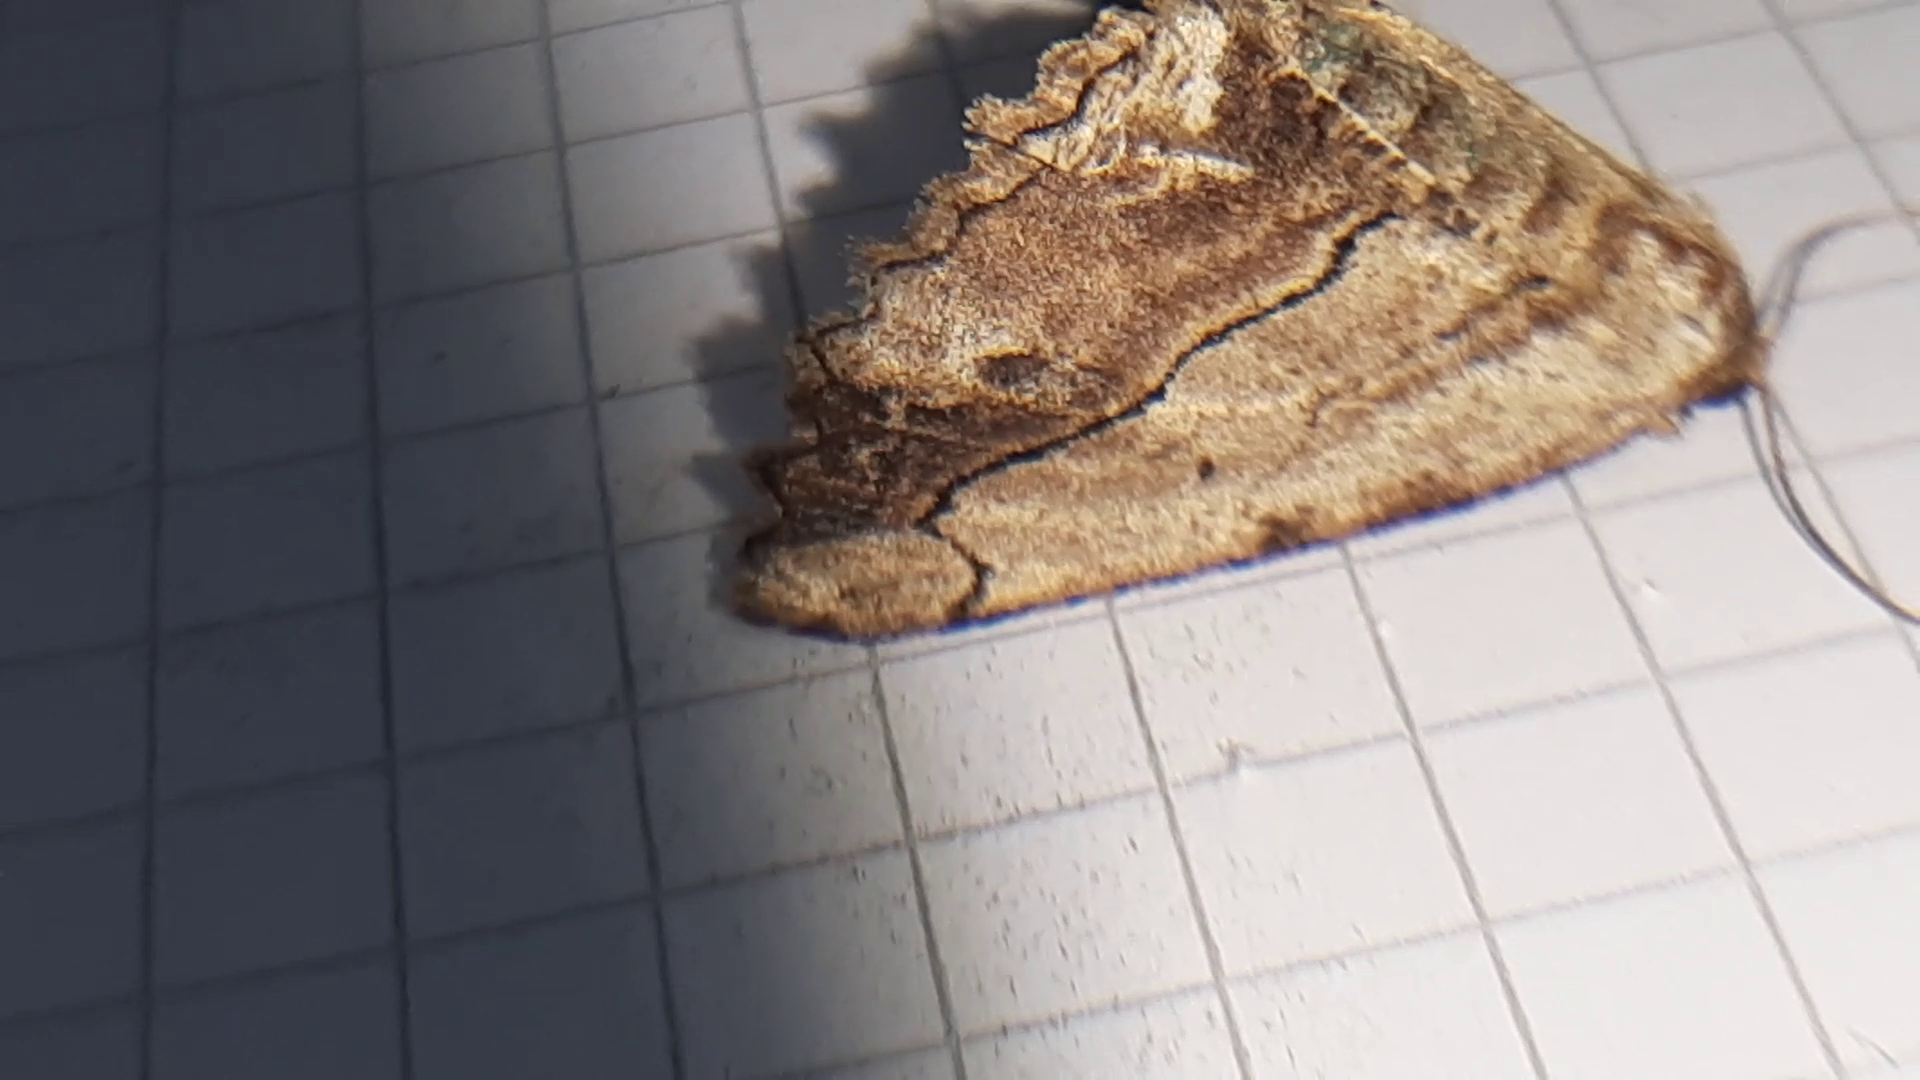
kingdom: Animalia
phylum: Arthropoda
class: Insecta
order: Lepidoptera
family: Geometridae
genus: Menophra
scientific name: Menophra abruptaria
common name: Waved umber
